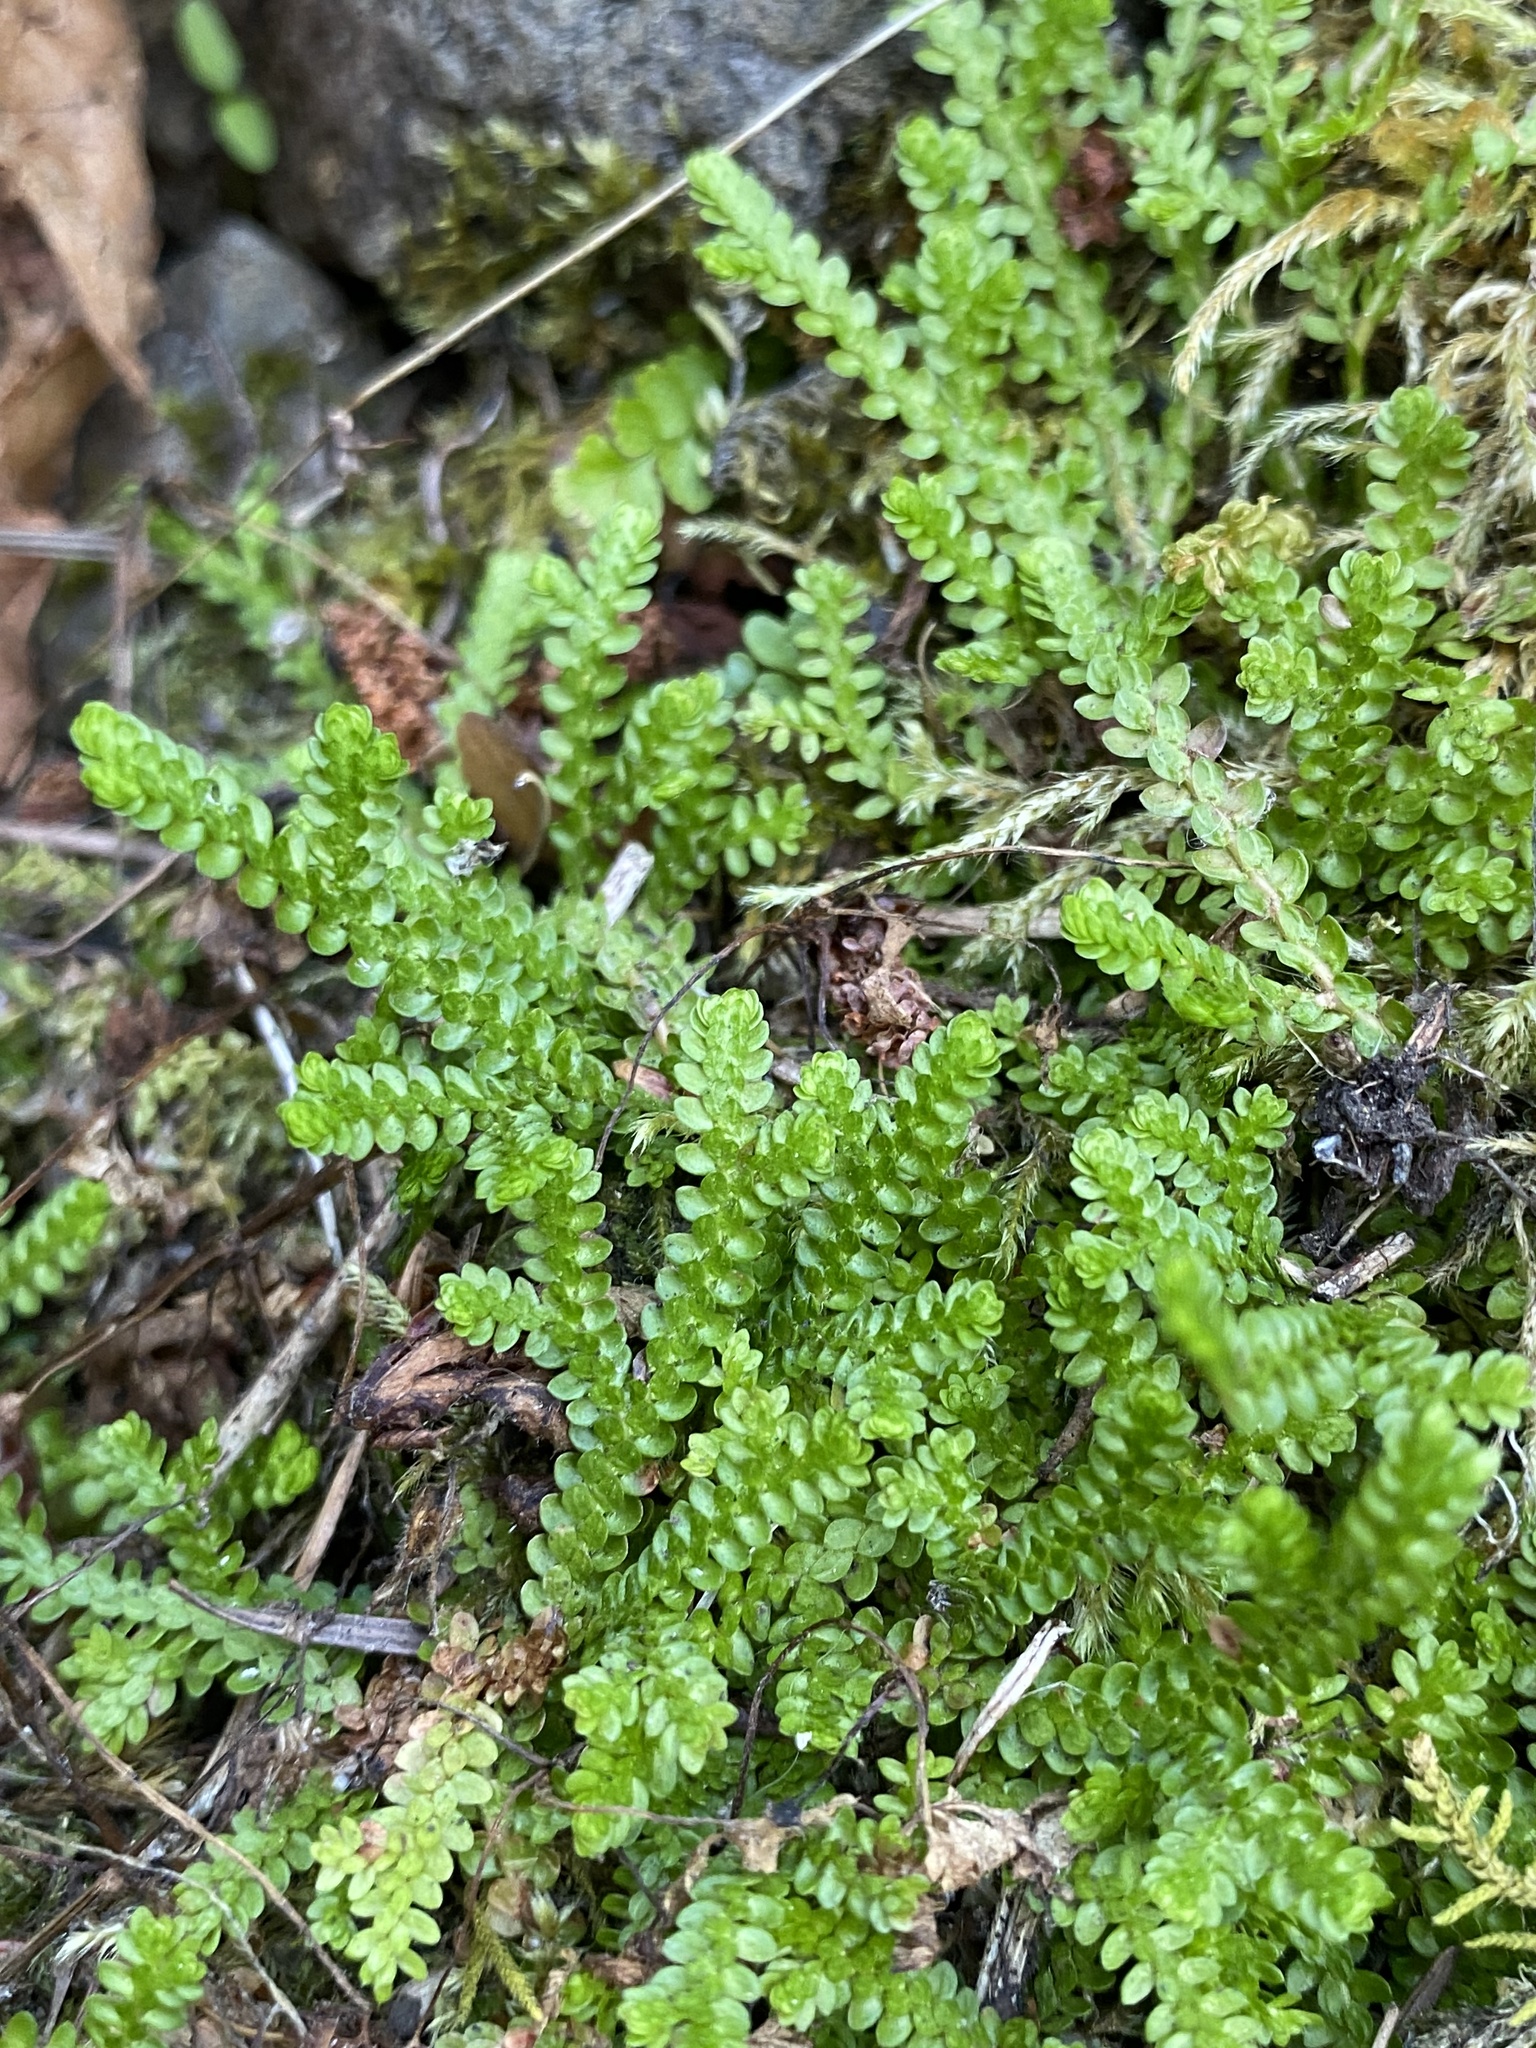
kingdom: Plantae
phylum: Tracheophyta
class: Lycopodiopsida
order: Selaginellales
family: Selaginellaceae
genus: Selaginella
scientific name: Selaginella douglasii
